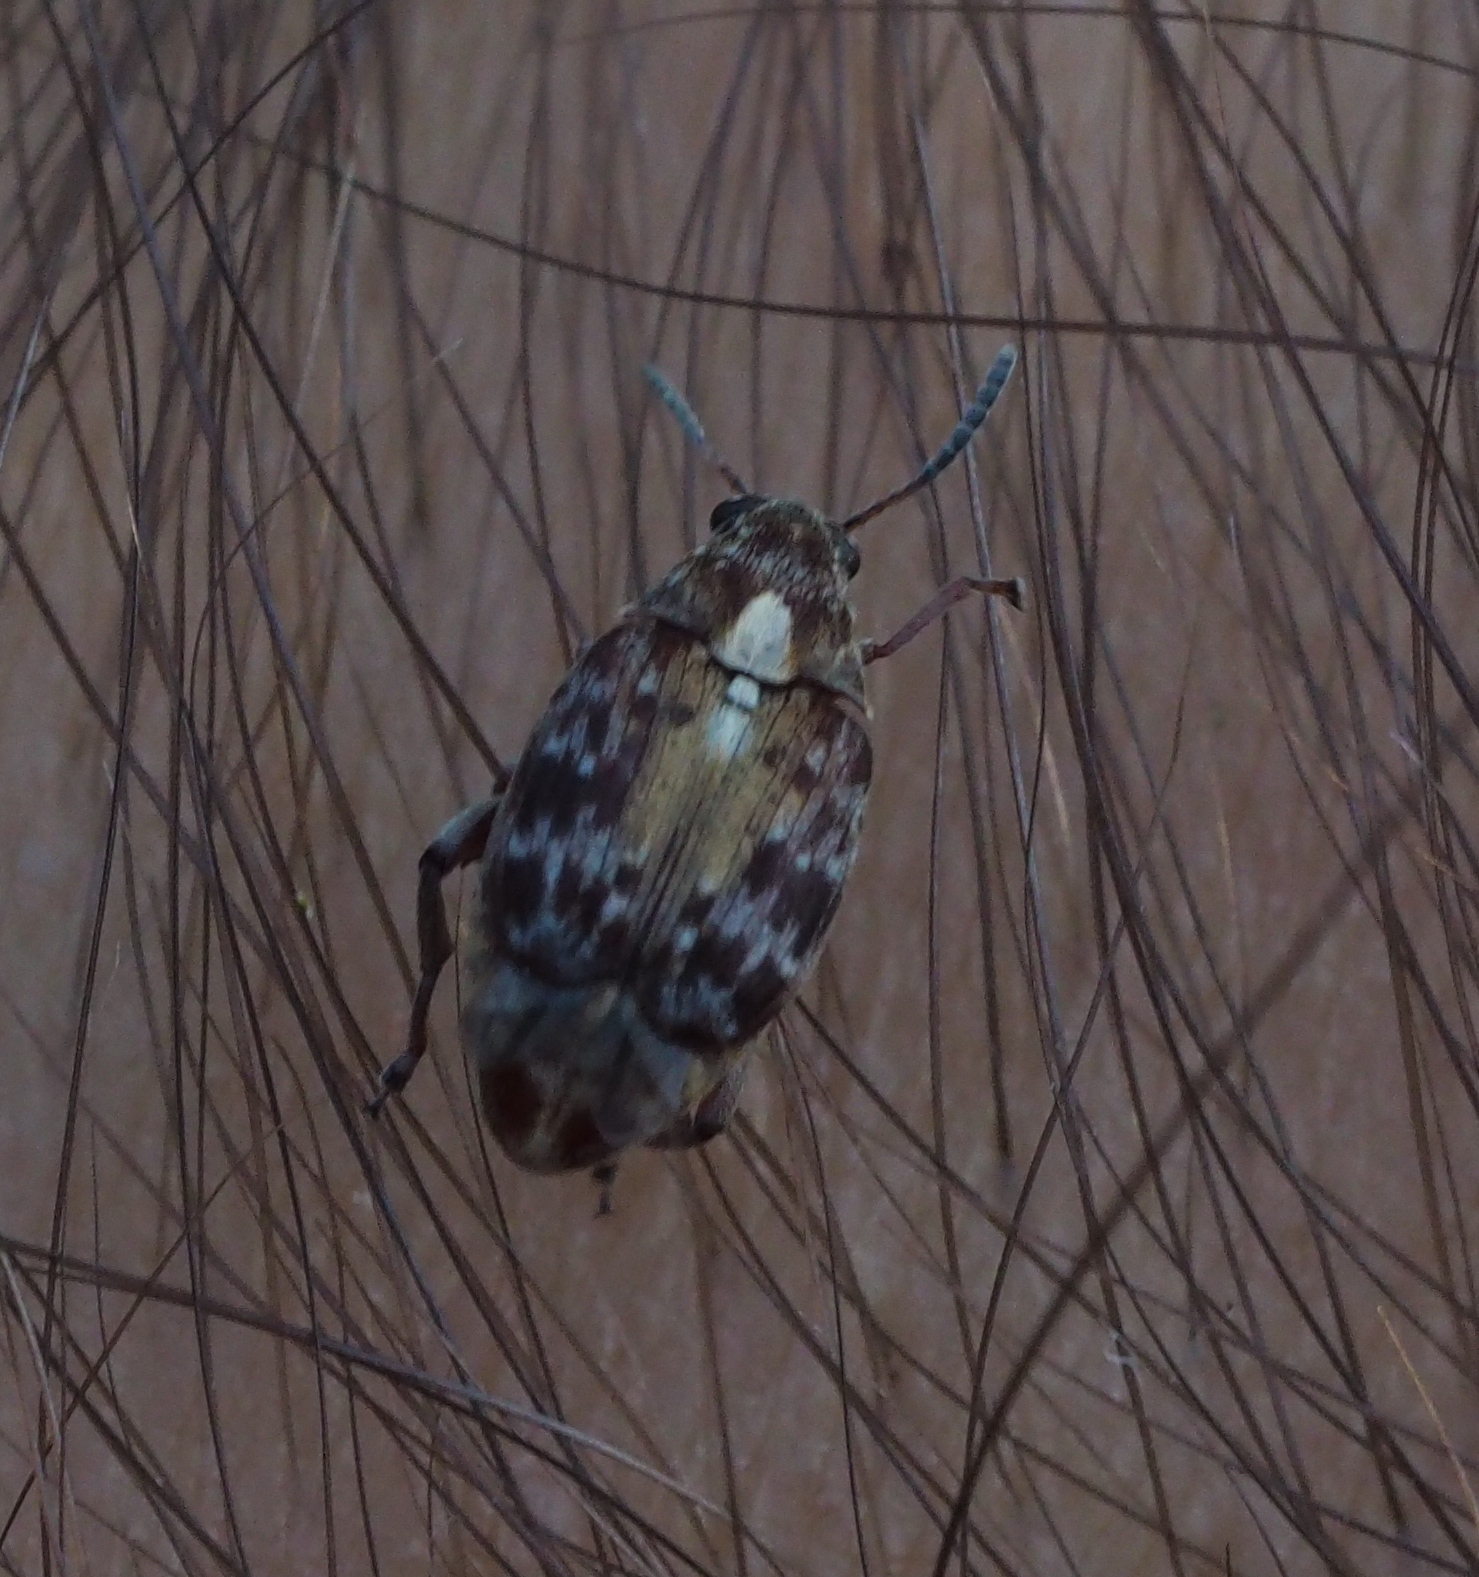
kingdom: Animalia
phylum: Arthropoda
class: Insecta
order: Coleoptera
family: Chrysomelidae
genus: Megabruchidius
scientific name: Megabruchidius dorsalis
